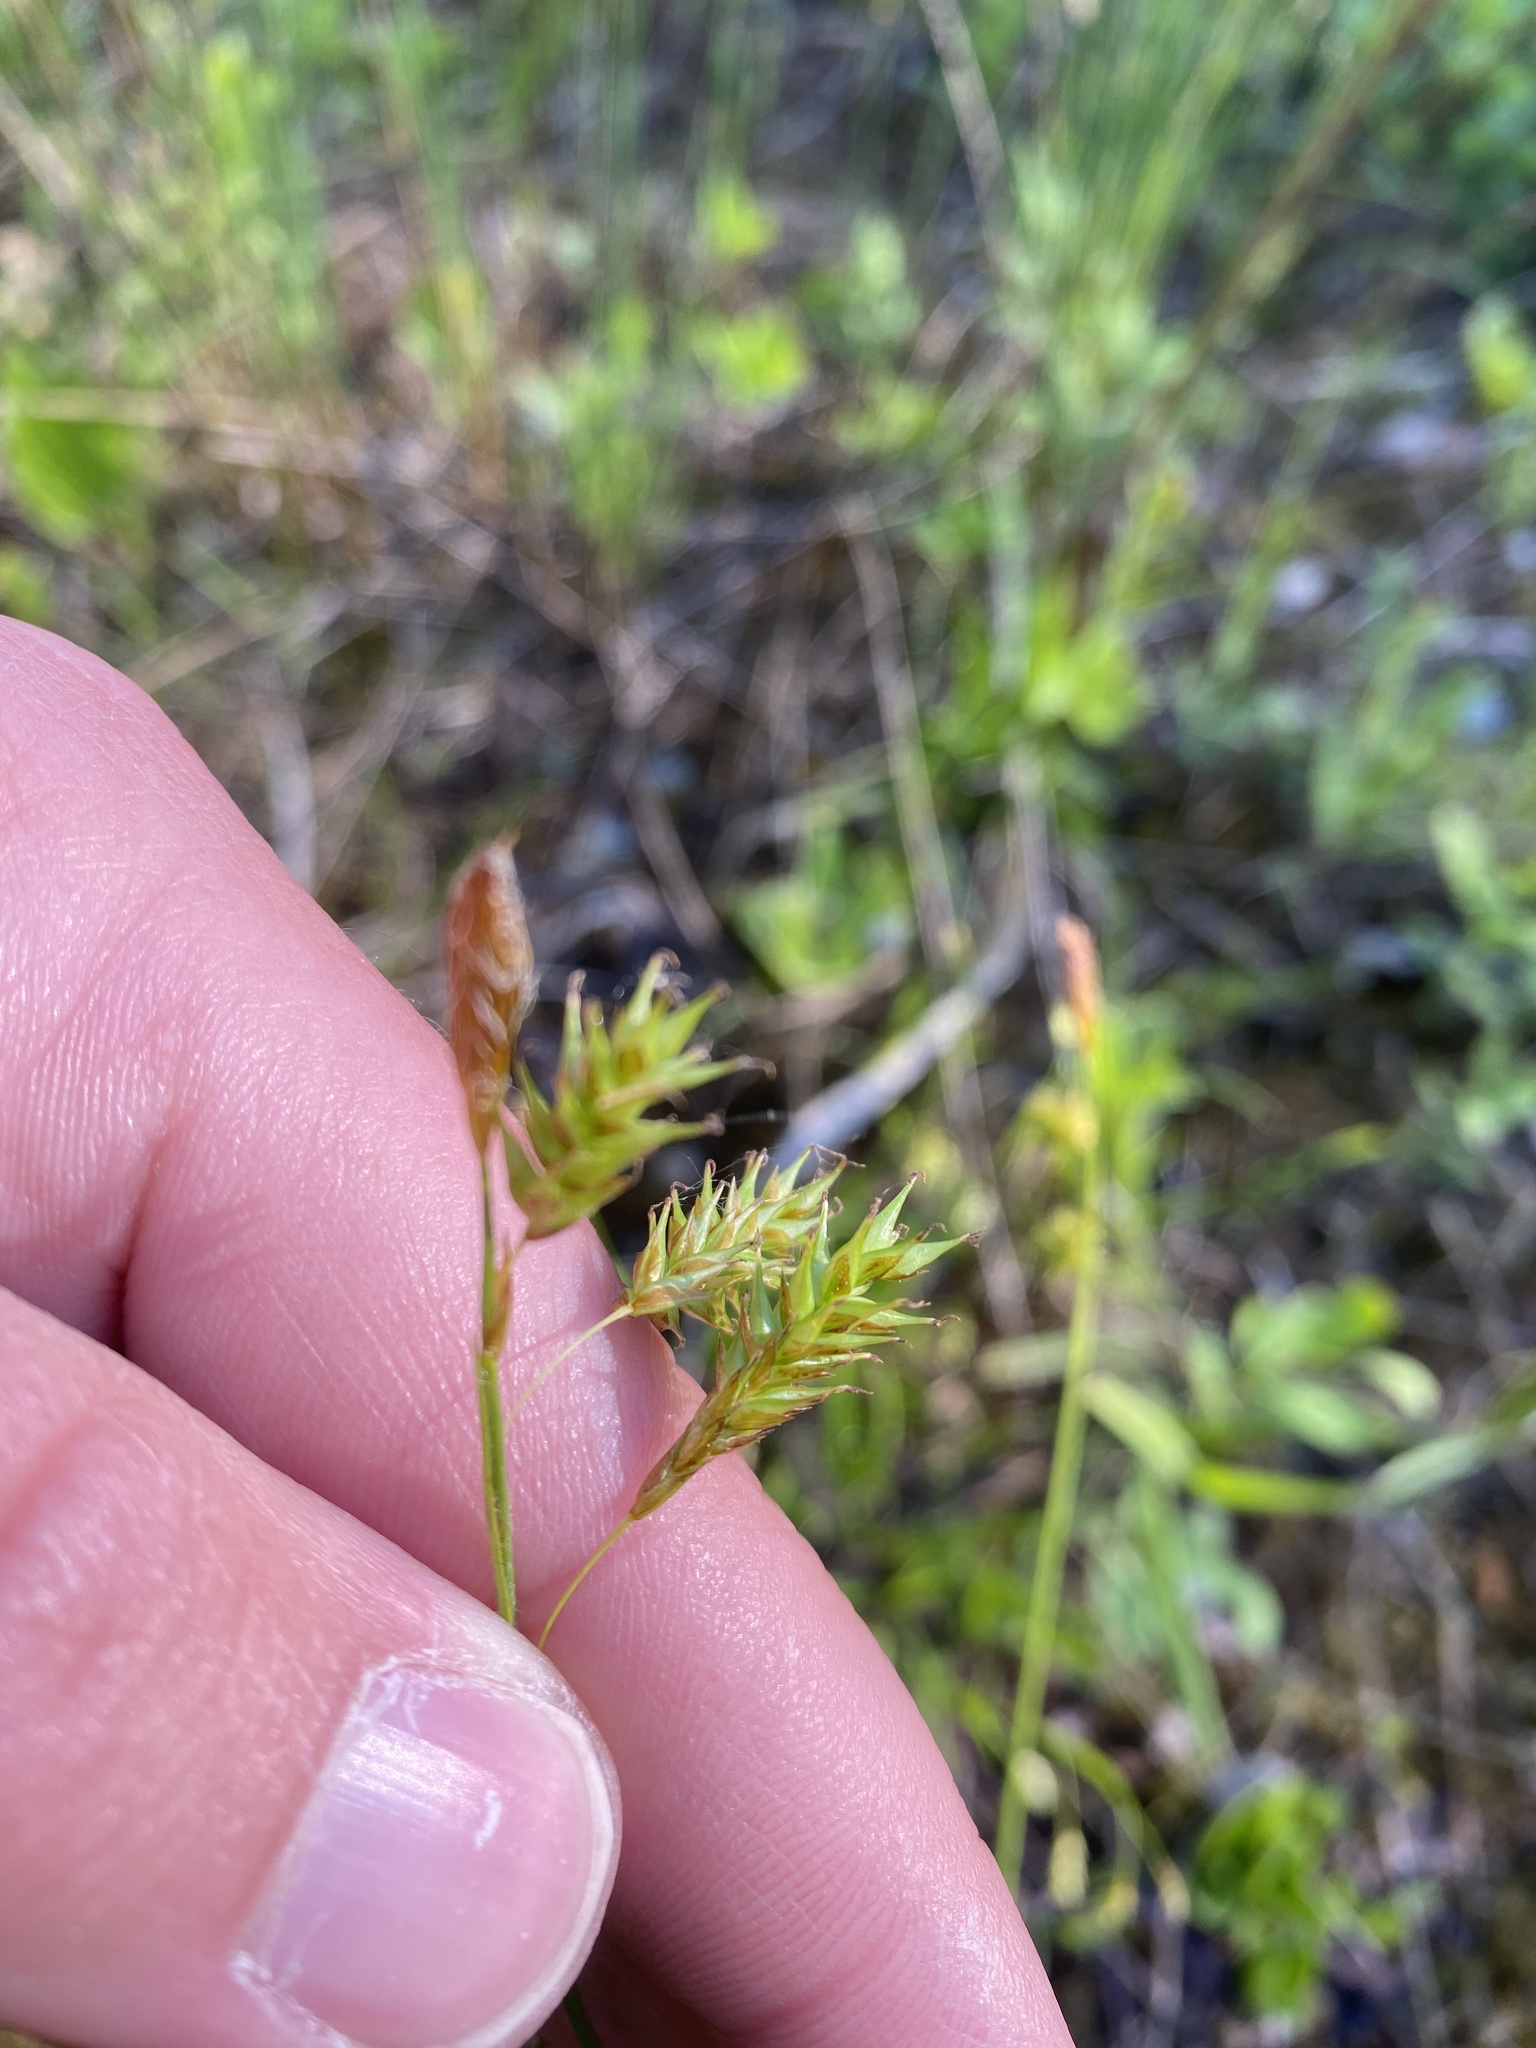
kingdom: Plantae
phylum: Tracheophyta
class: Liliopsida
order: Poales
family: Cyperaceae
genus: Carex
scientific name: Carex castanea
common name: Chestnut sedge
